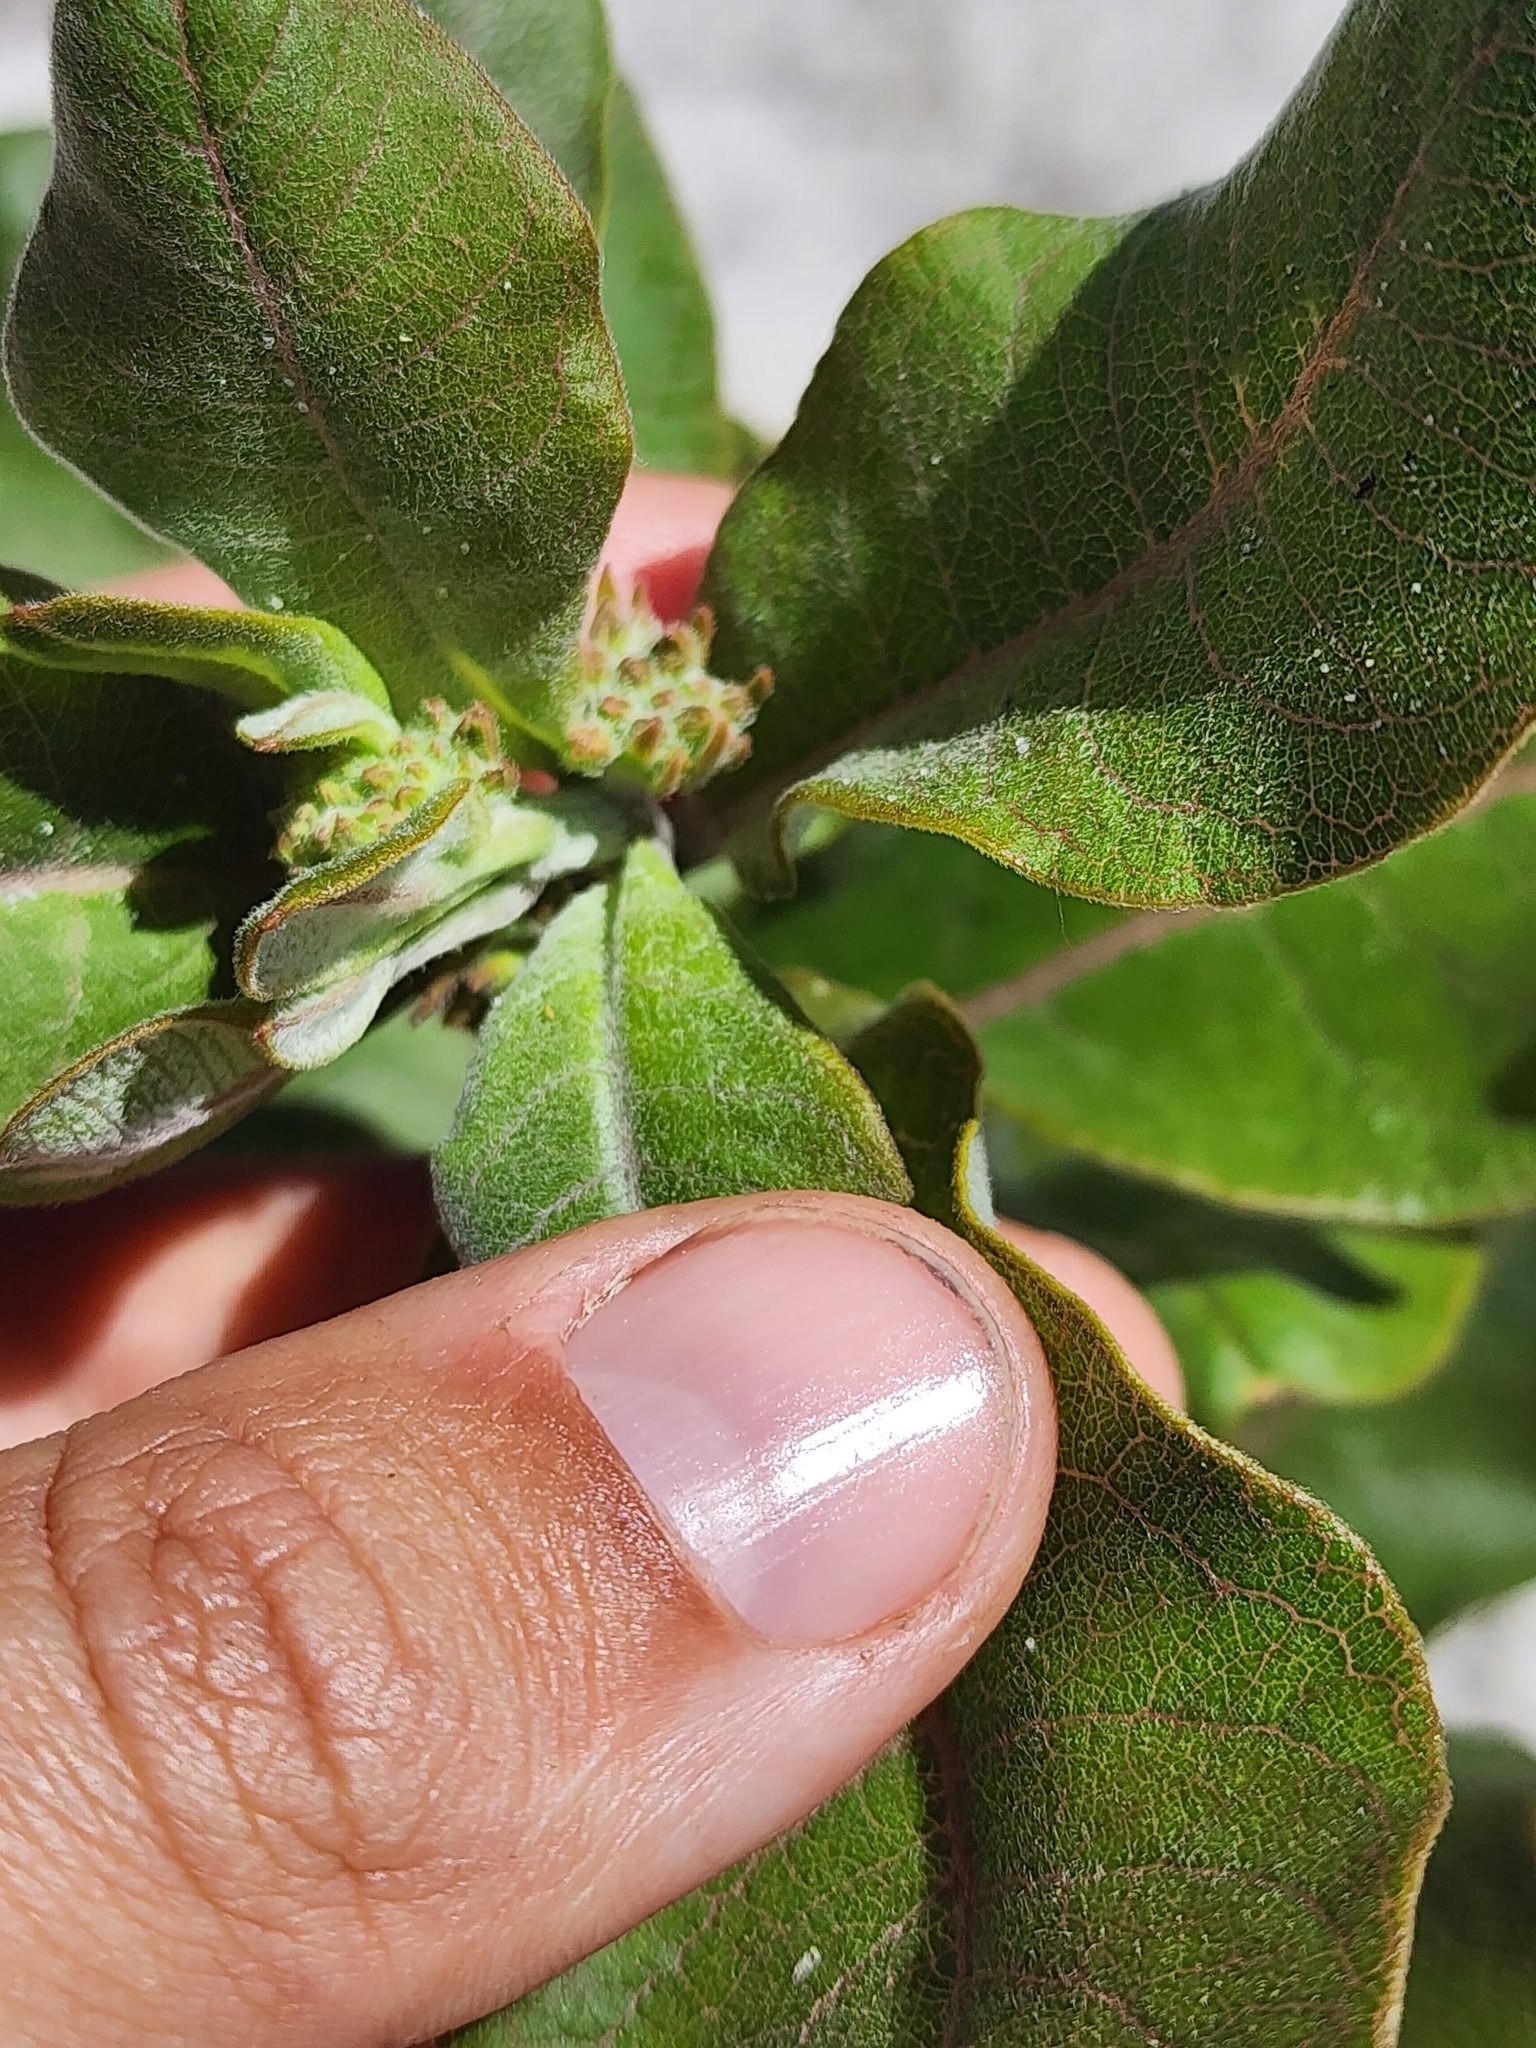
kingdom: Plantae
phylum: Tracheophyta
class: Magnoliopsida
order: Gentianales
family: Apocynaceae
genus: Asclepias
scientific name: Asclepias tomentosa
